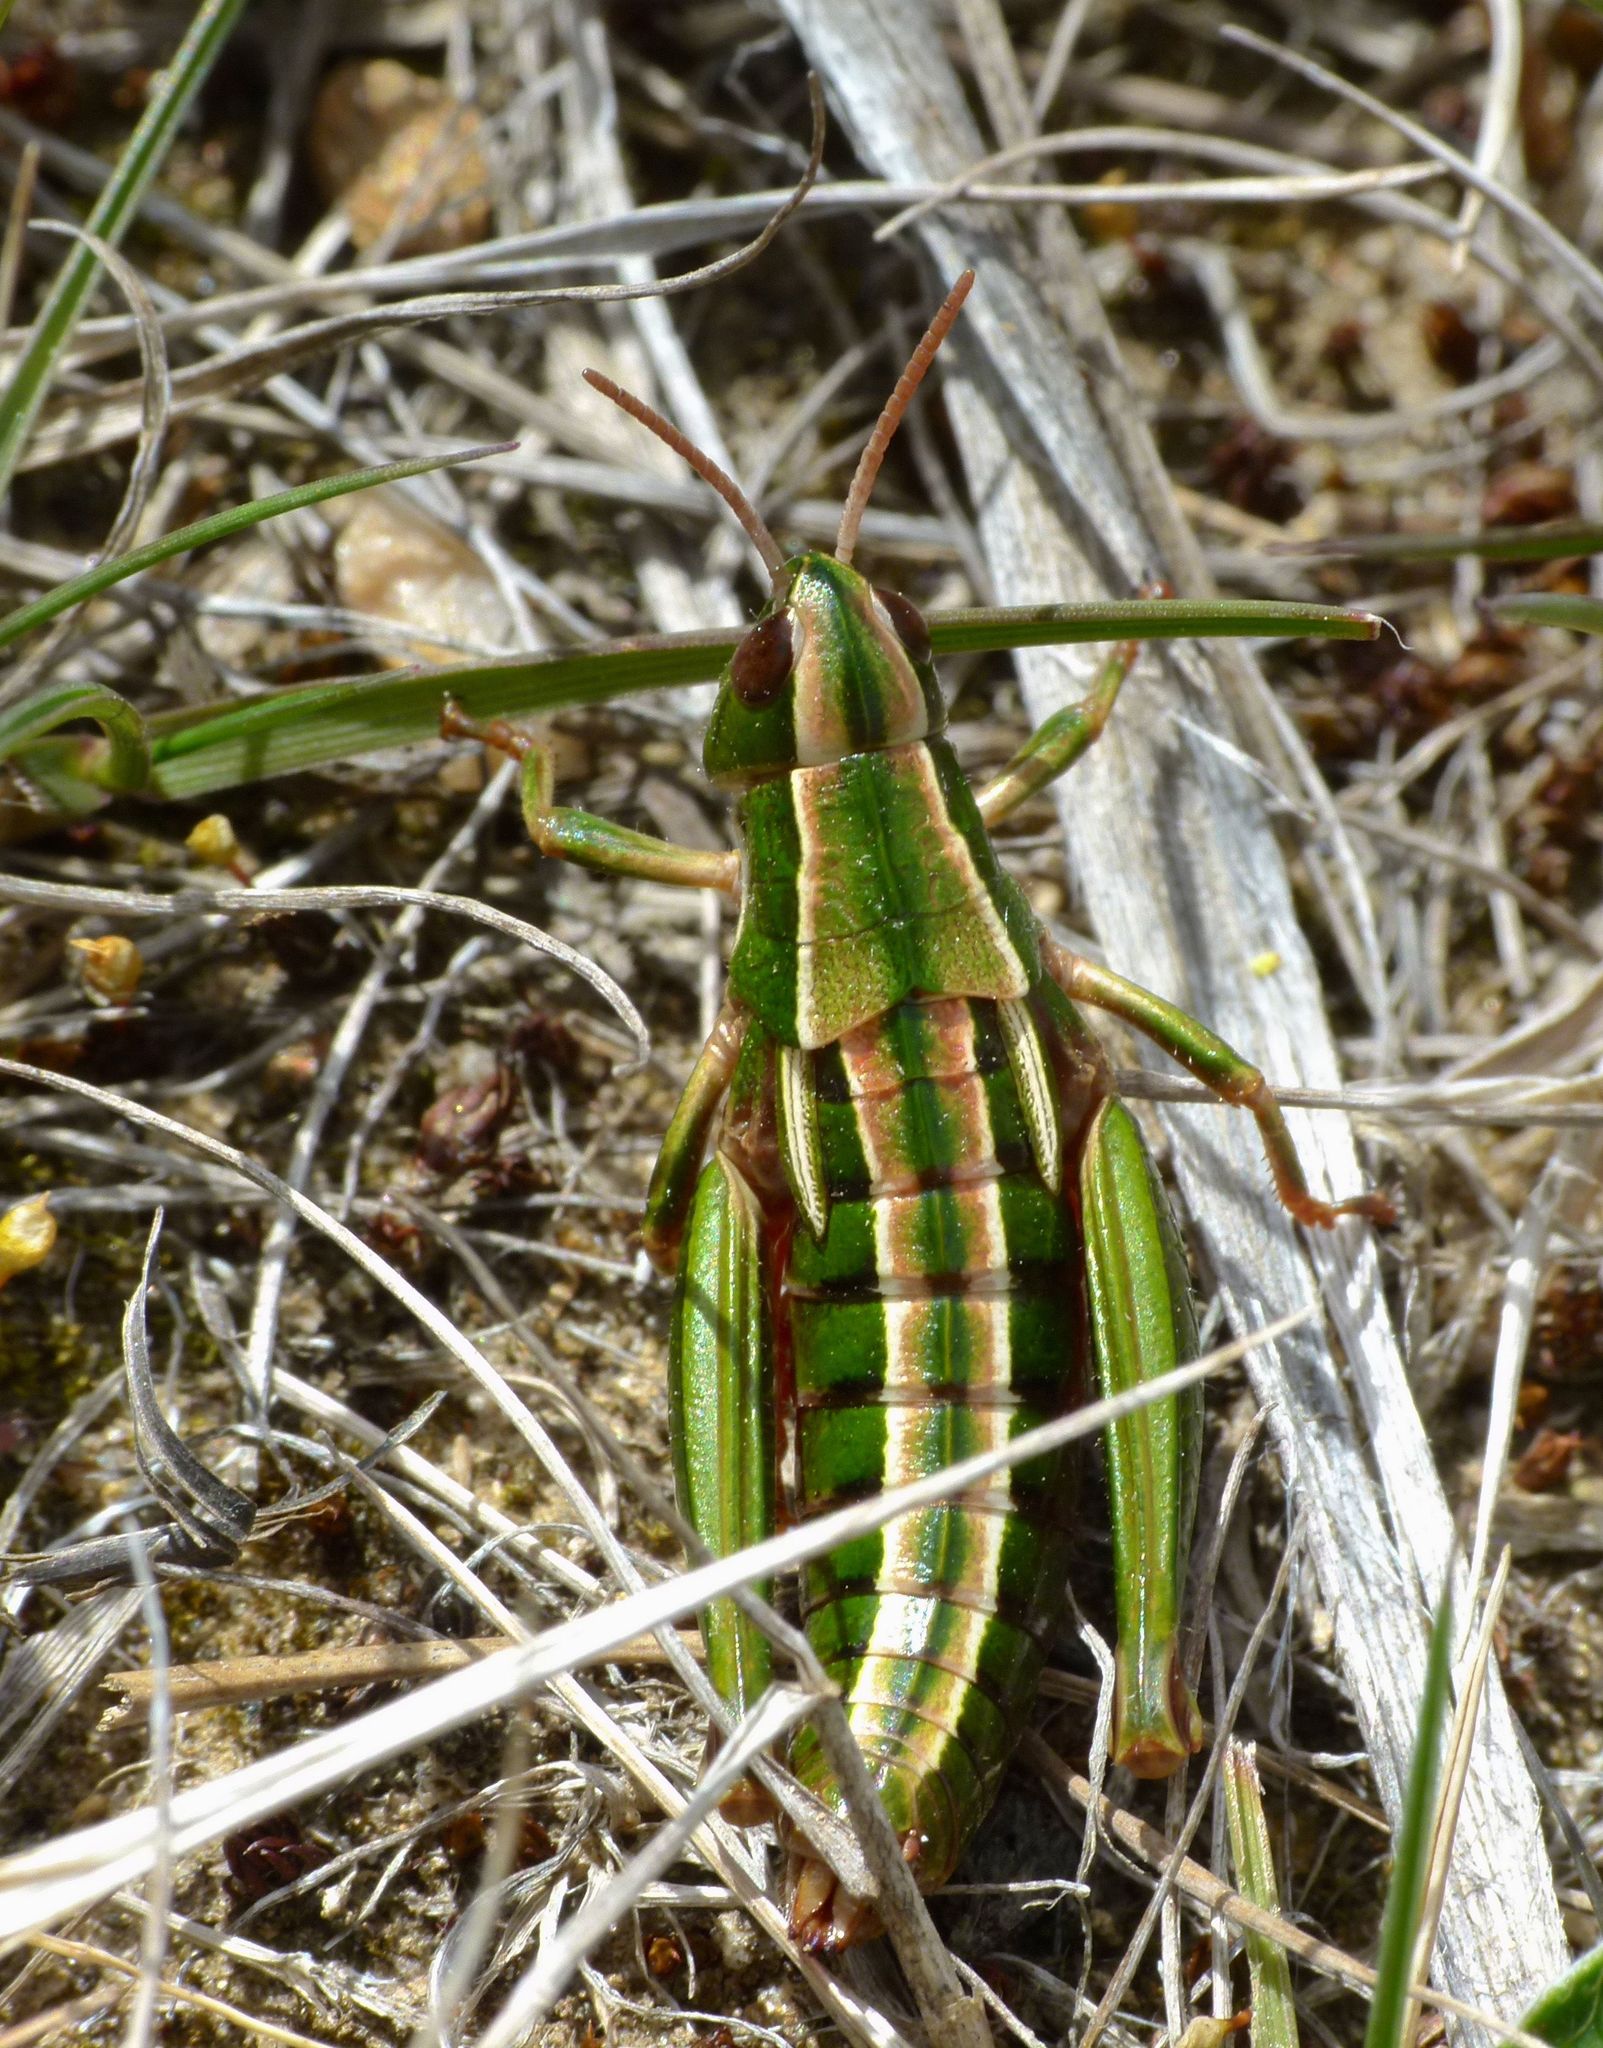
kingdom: Animalia
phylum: Arthropoda
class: Insecta
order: Orthoptera
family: Acrididae
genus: Sigaus
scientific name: Sigaus
